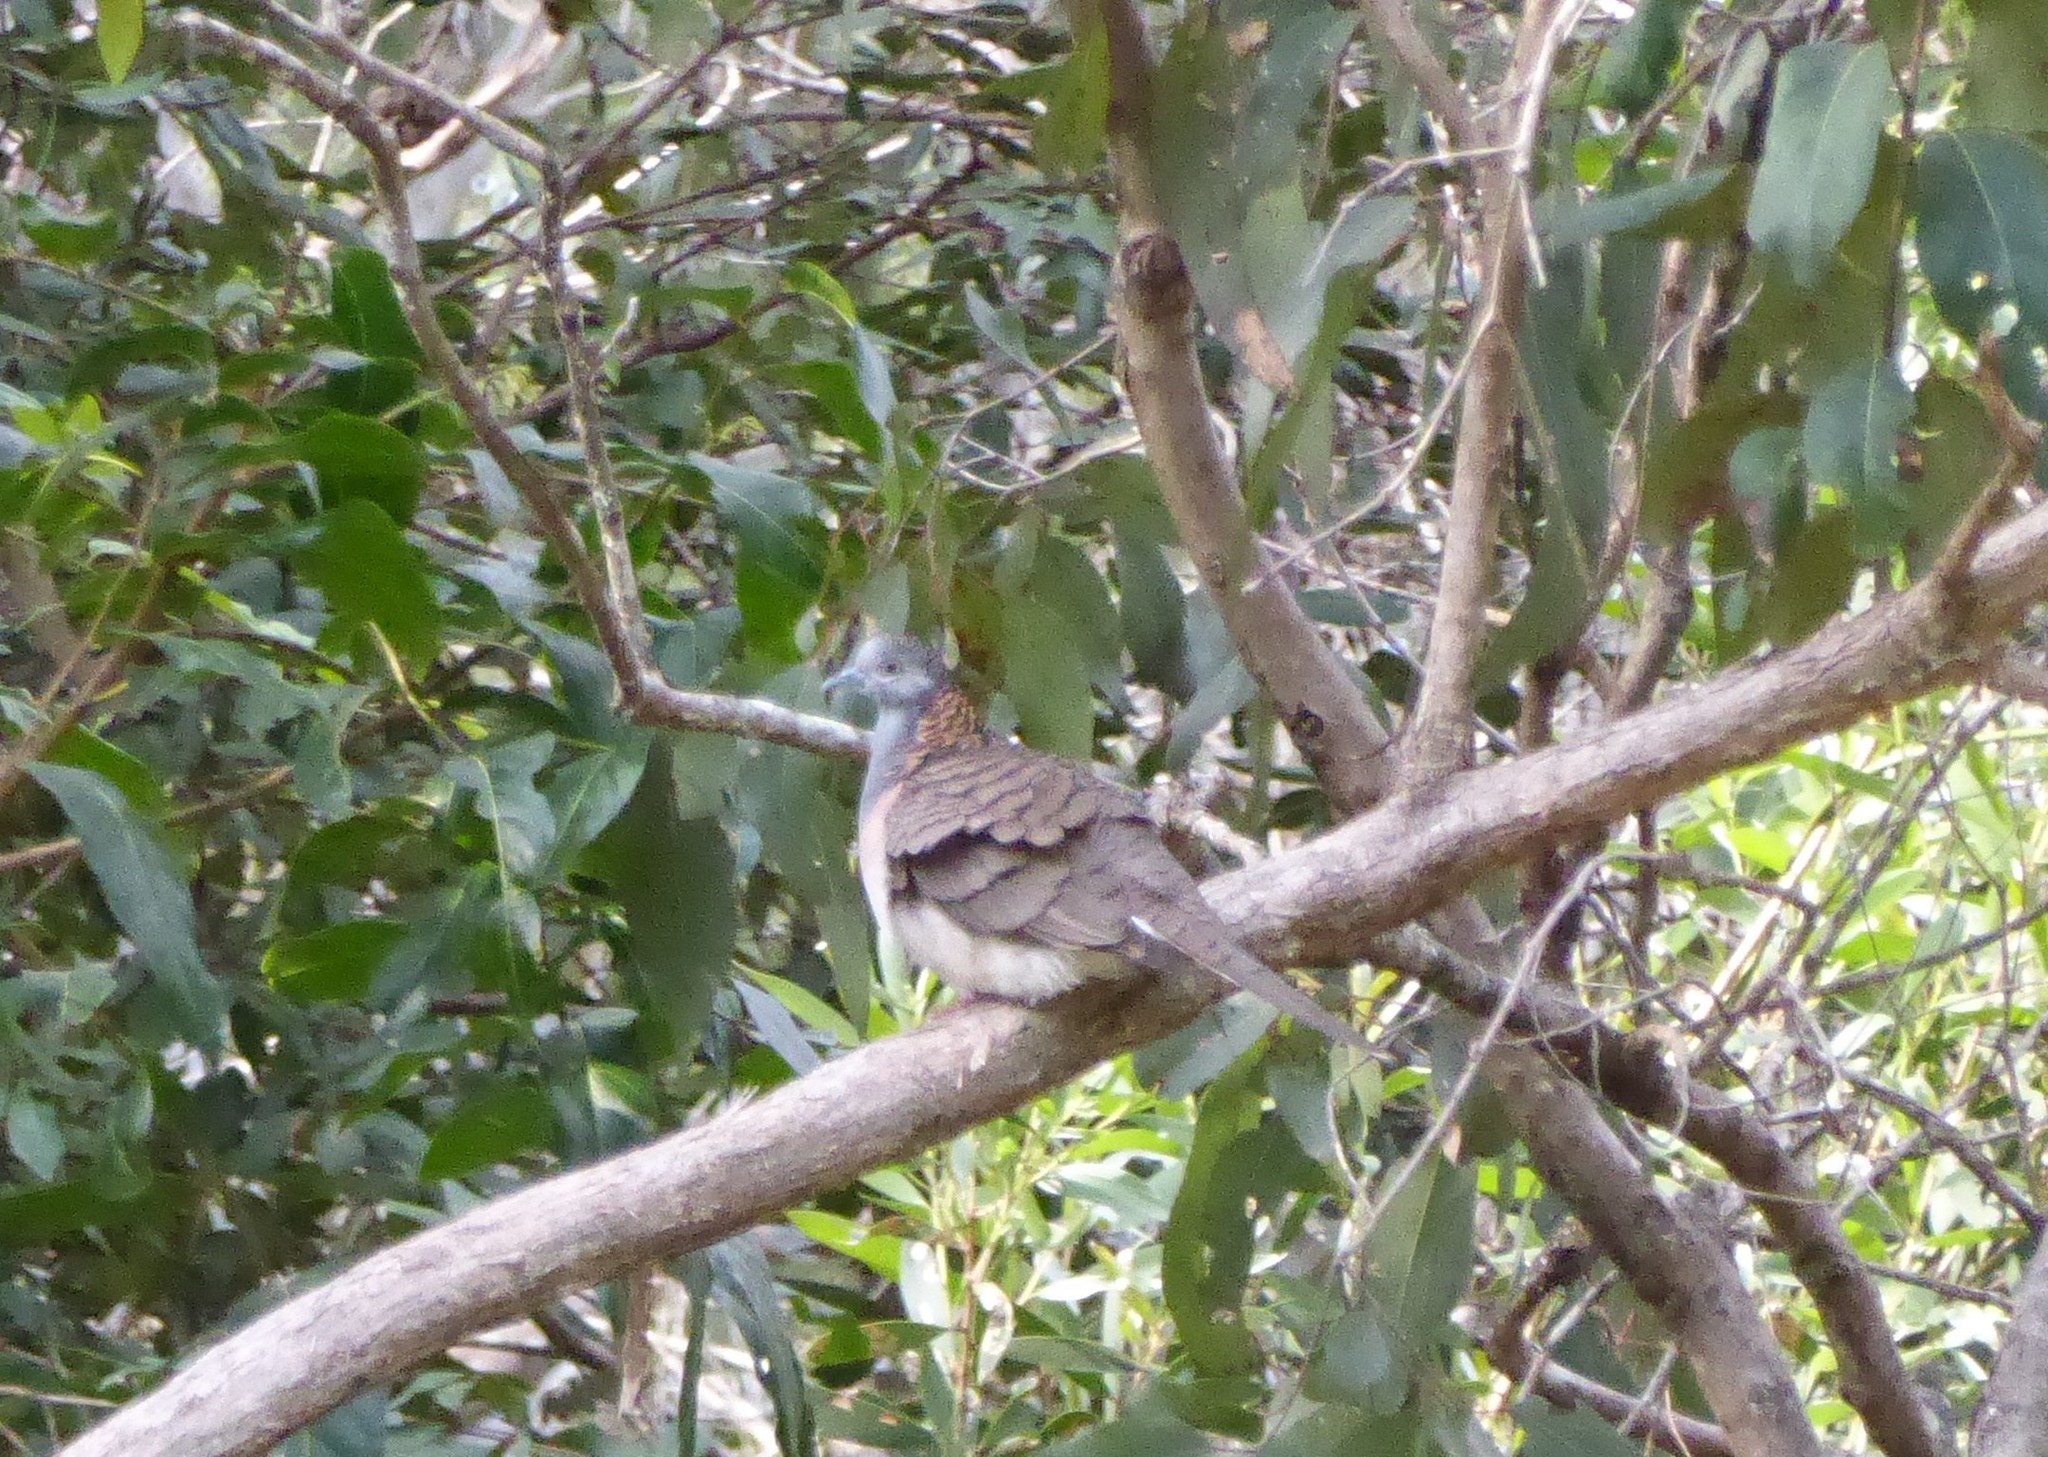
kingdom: Animalia
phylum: Chordata
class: Aves
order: Columbiformes
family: Columbidae
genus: Geopelia
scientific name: Geopelia humeralis
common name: Bar-shouldered dove
